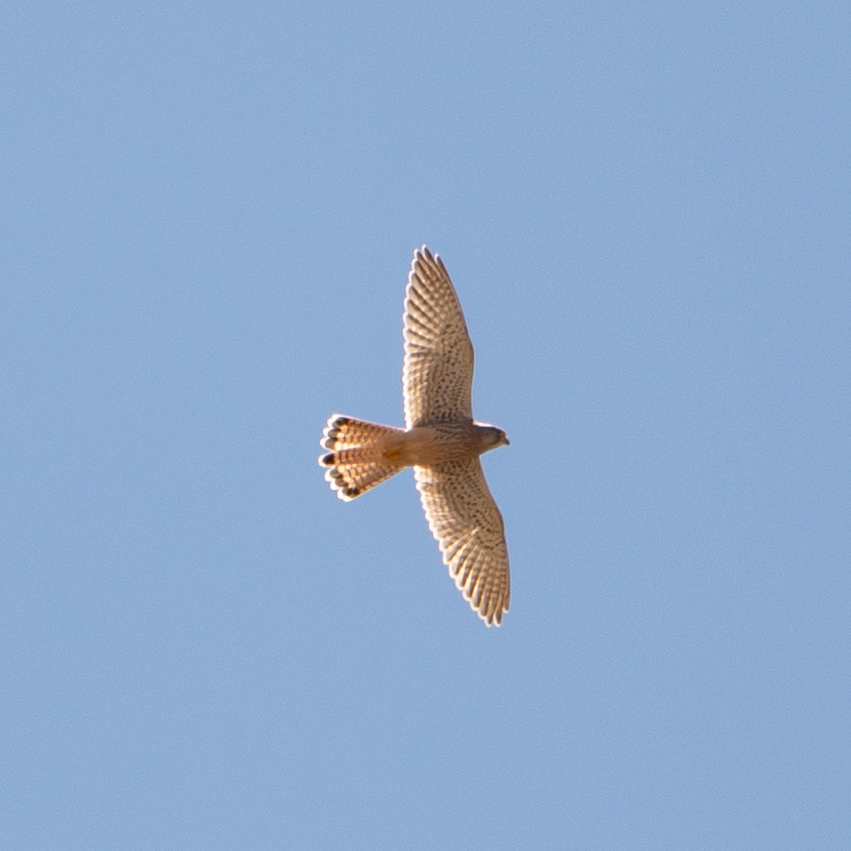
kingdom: Animalia
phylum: Chordata
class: Aves
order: Falconiformes
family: Falconidae
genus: Falco
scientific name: Falco tinnunculus
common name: Common kestrel
